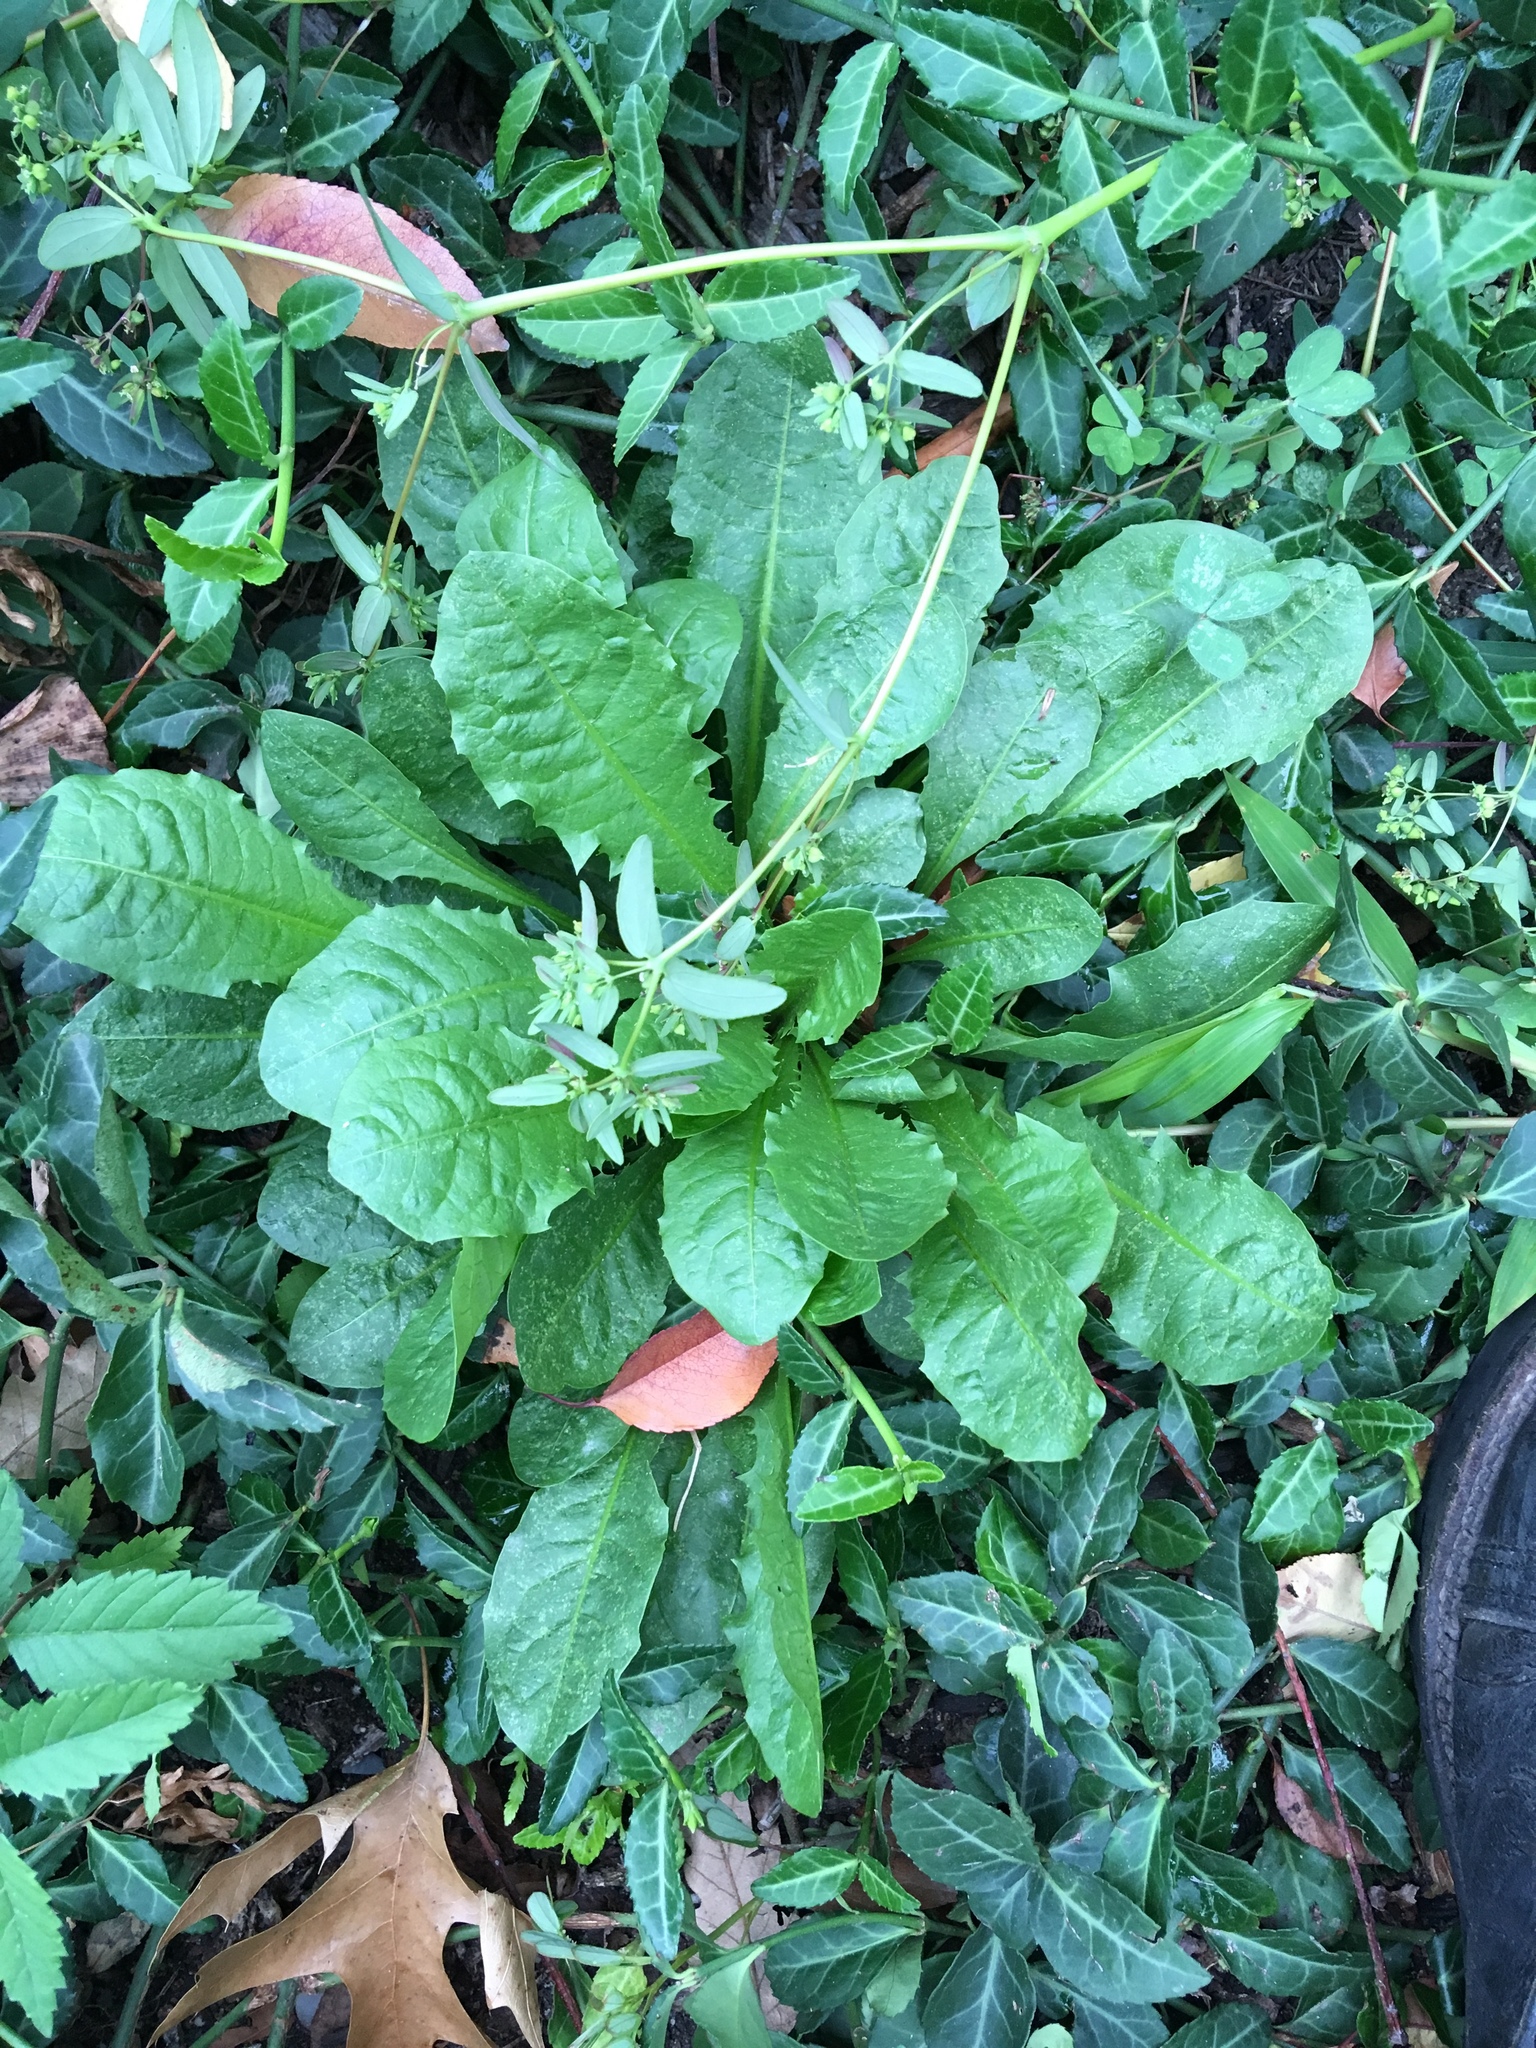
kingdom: Plantae
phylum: Tracheophyta
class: Magnoliopsida
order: Asterales
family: Asteraceae
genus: Youngia
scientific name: Youngia japonica
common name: Oriental false hawksbeard
